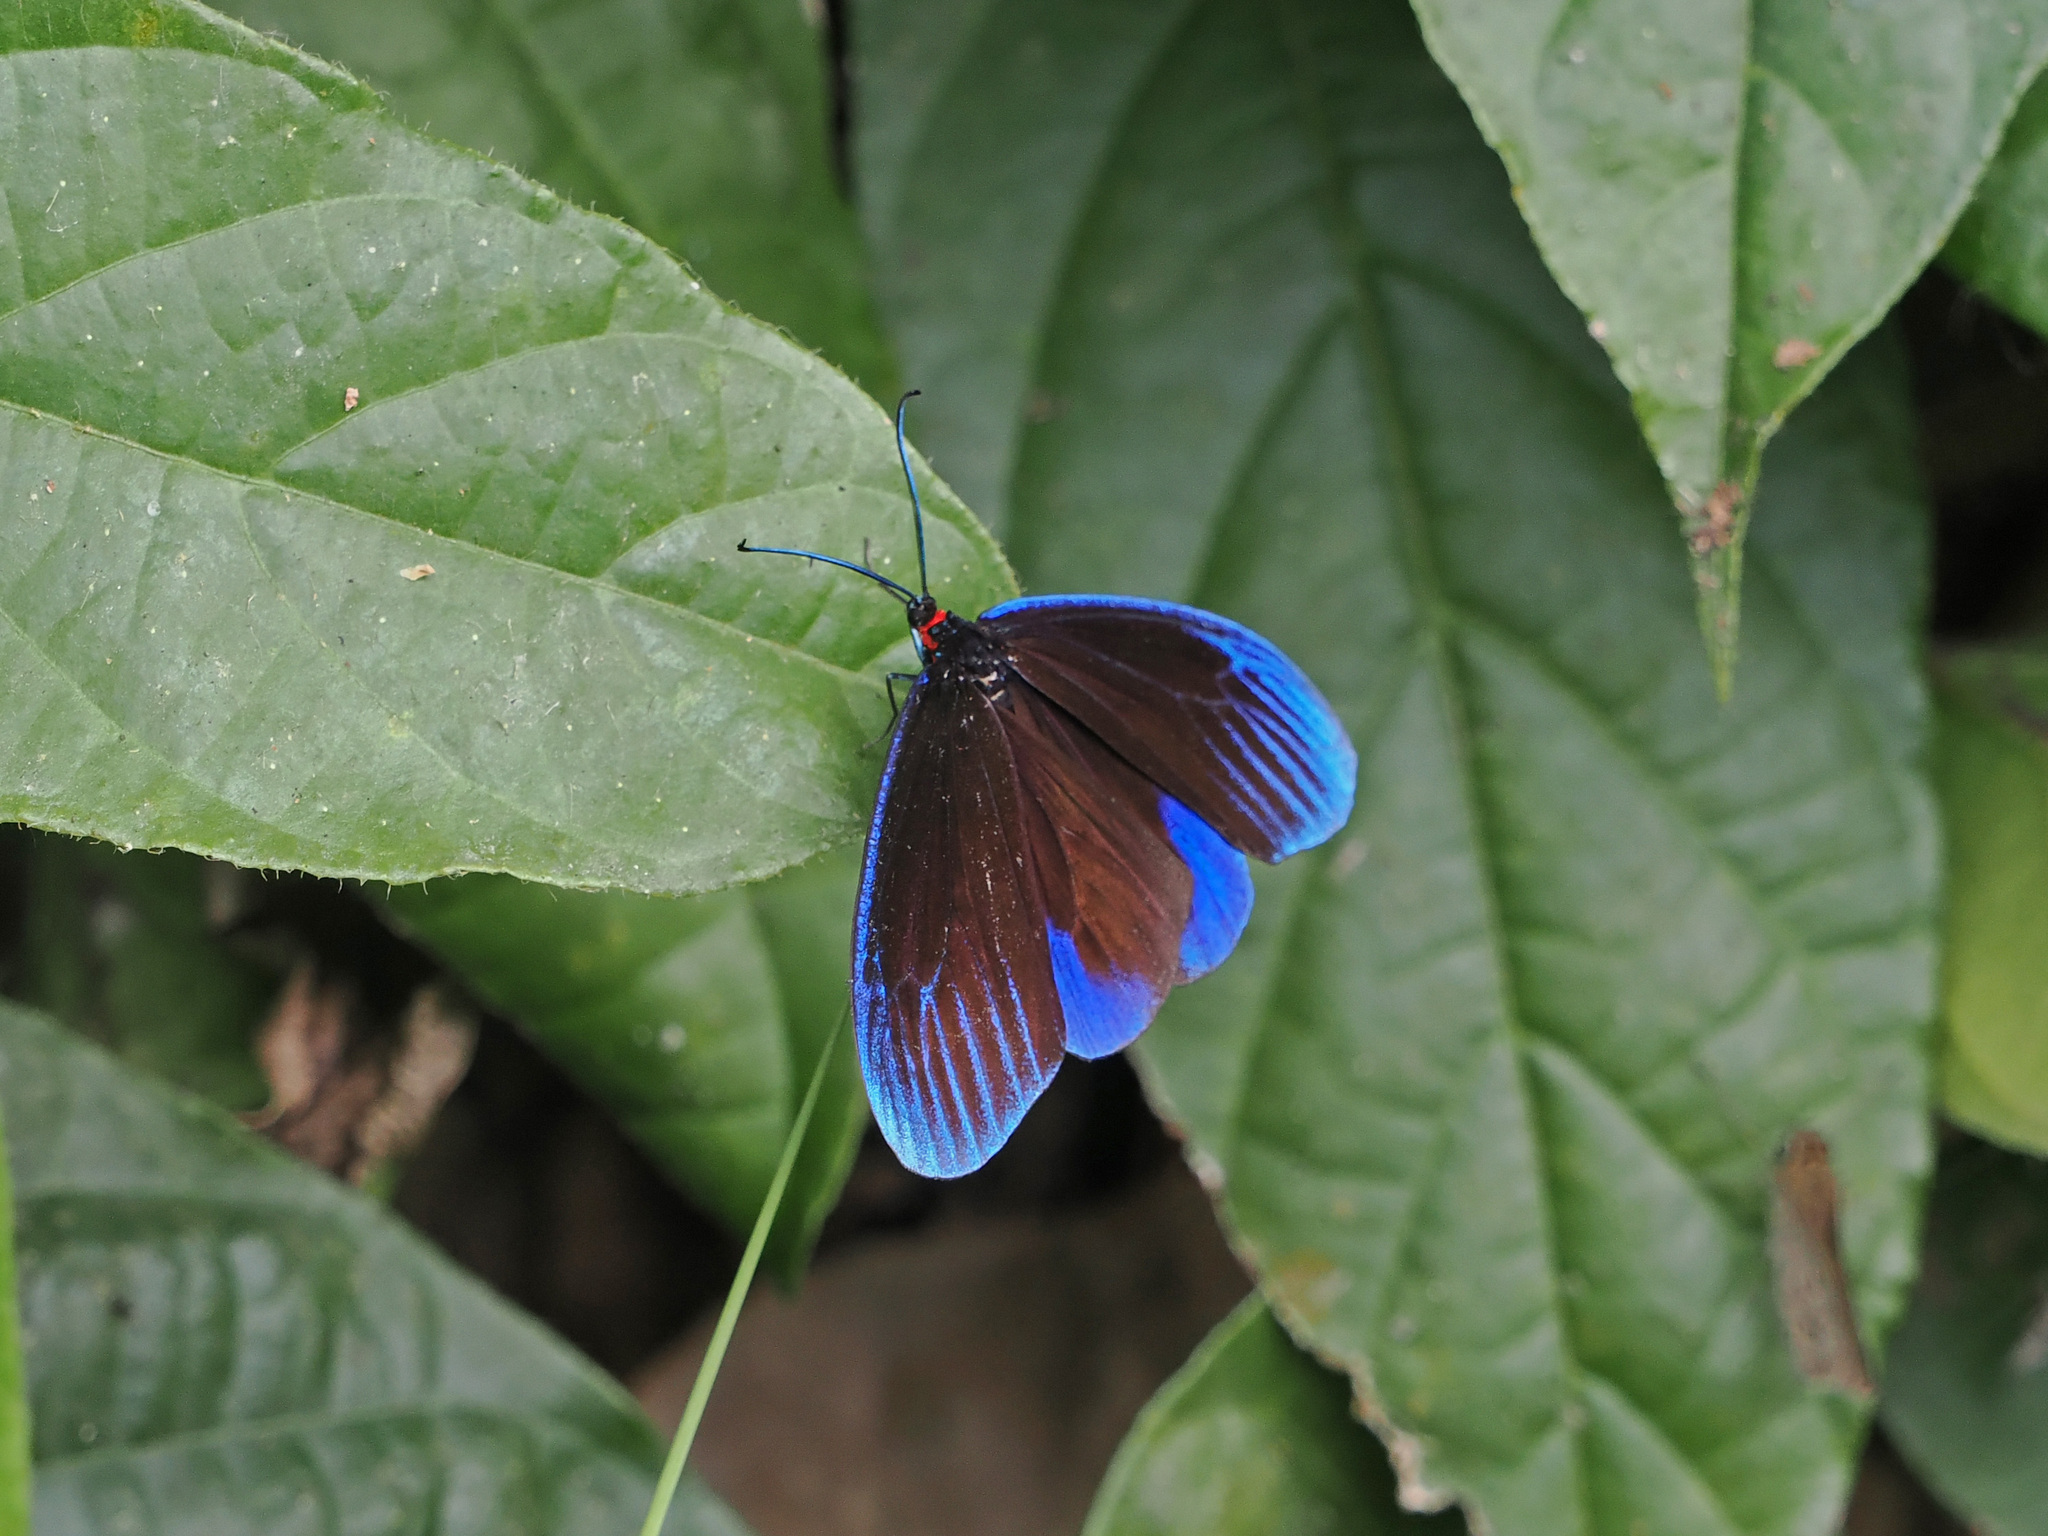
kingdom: Animalia
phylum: Arthropoda
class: Insecta
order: Lepidoptera
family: Zygaenidae
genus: Pompelon
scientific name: Pompelon marginata
